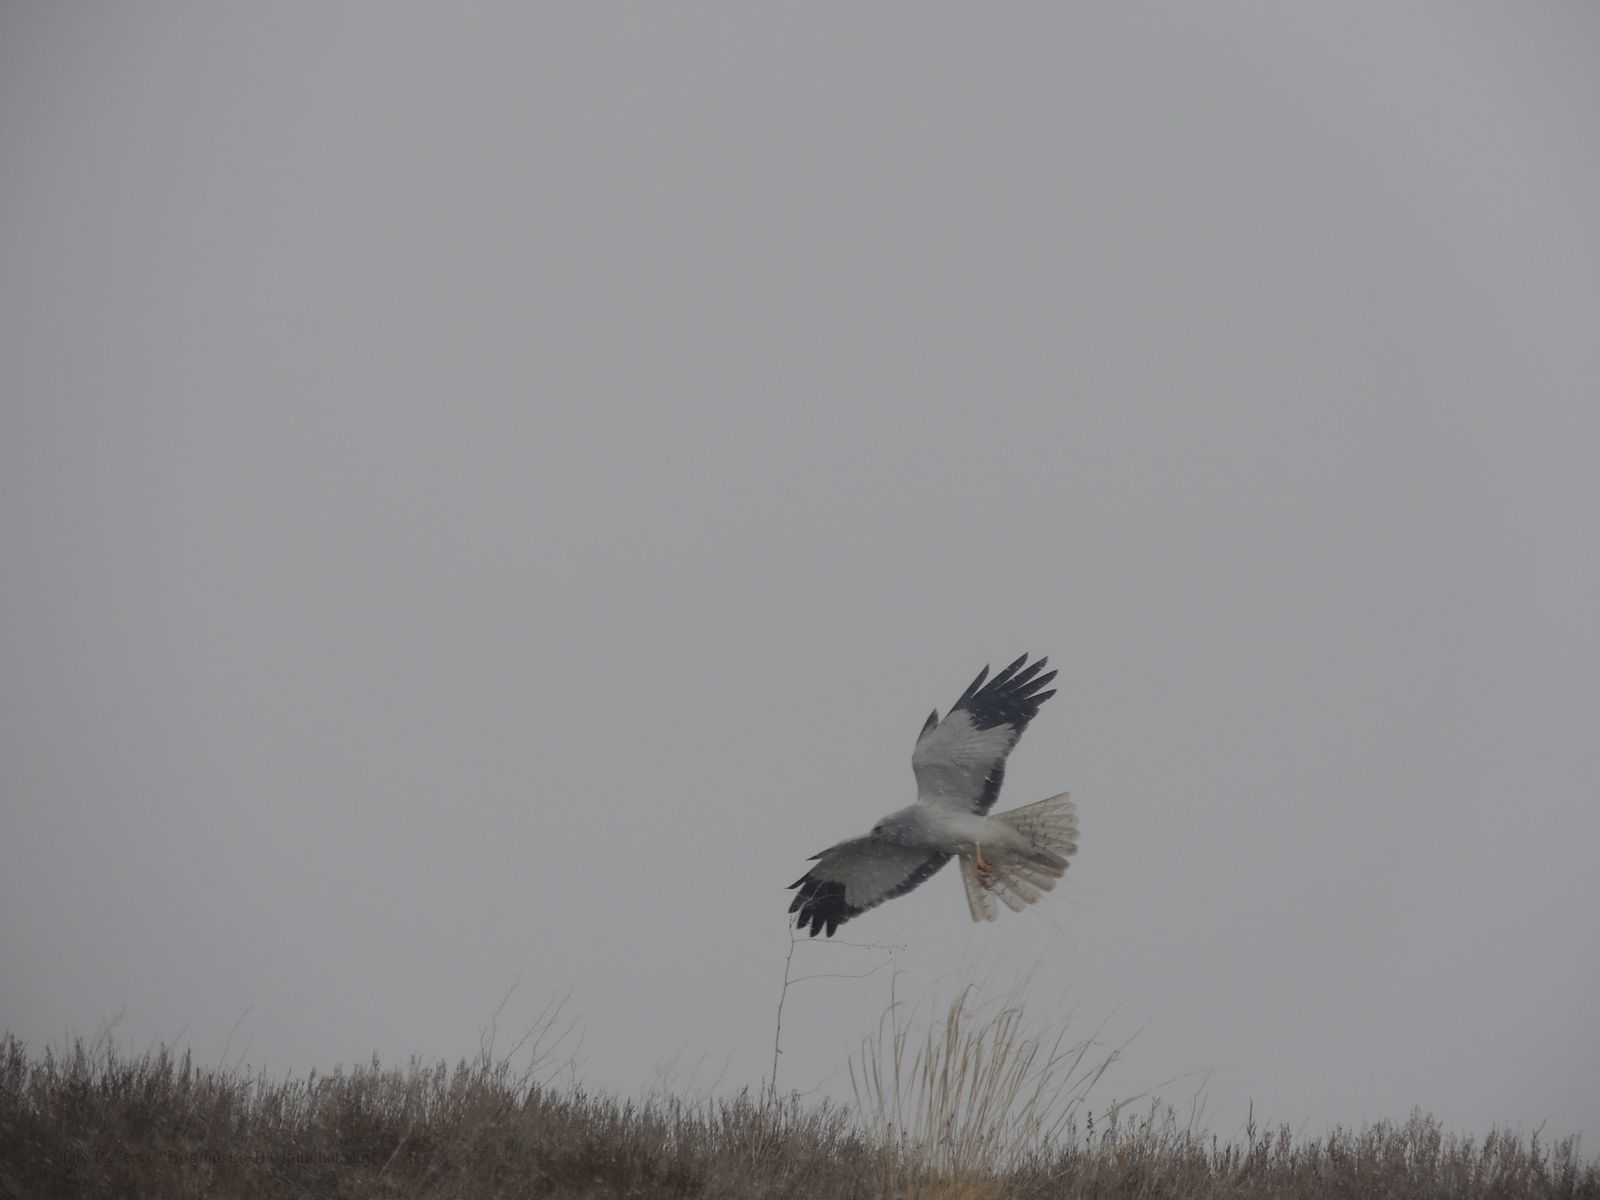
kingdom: Animalia
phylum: Chordata
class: Aves
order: Accipitriformes
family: Accipitridae
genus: Circus
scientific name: Circus cyaneus
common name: Hen harrier
